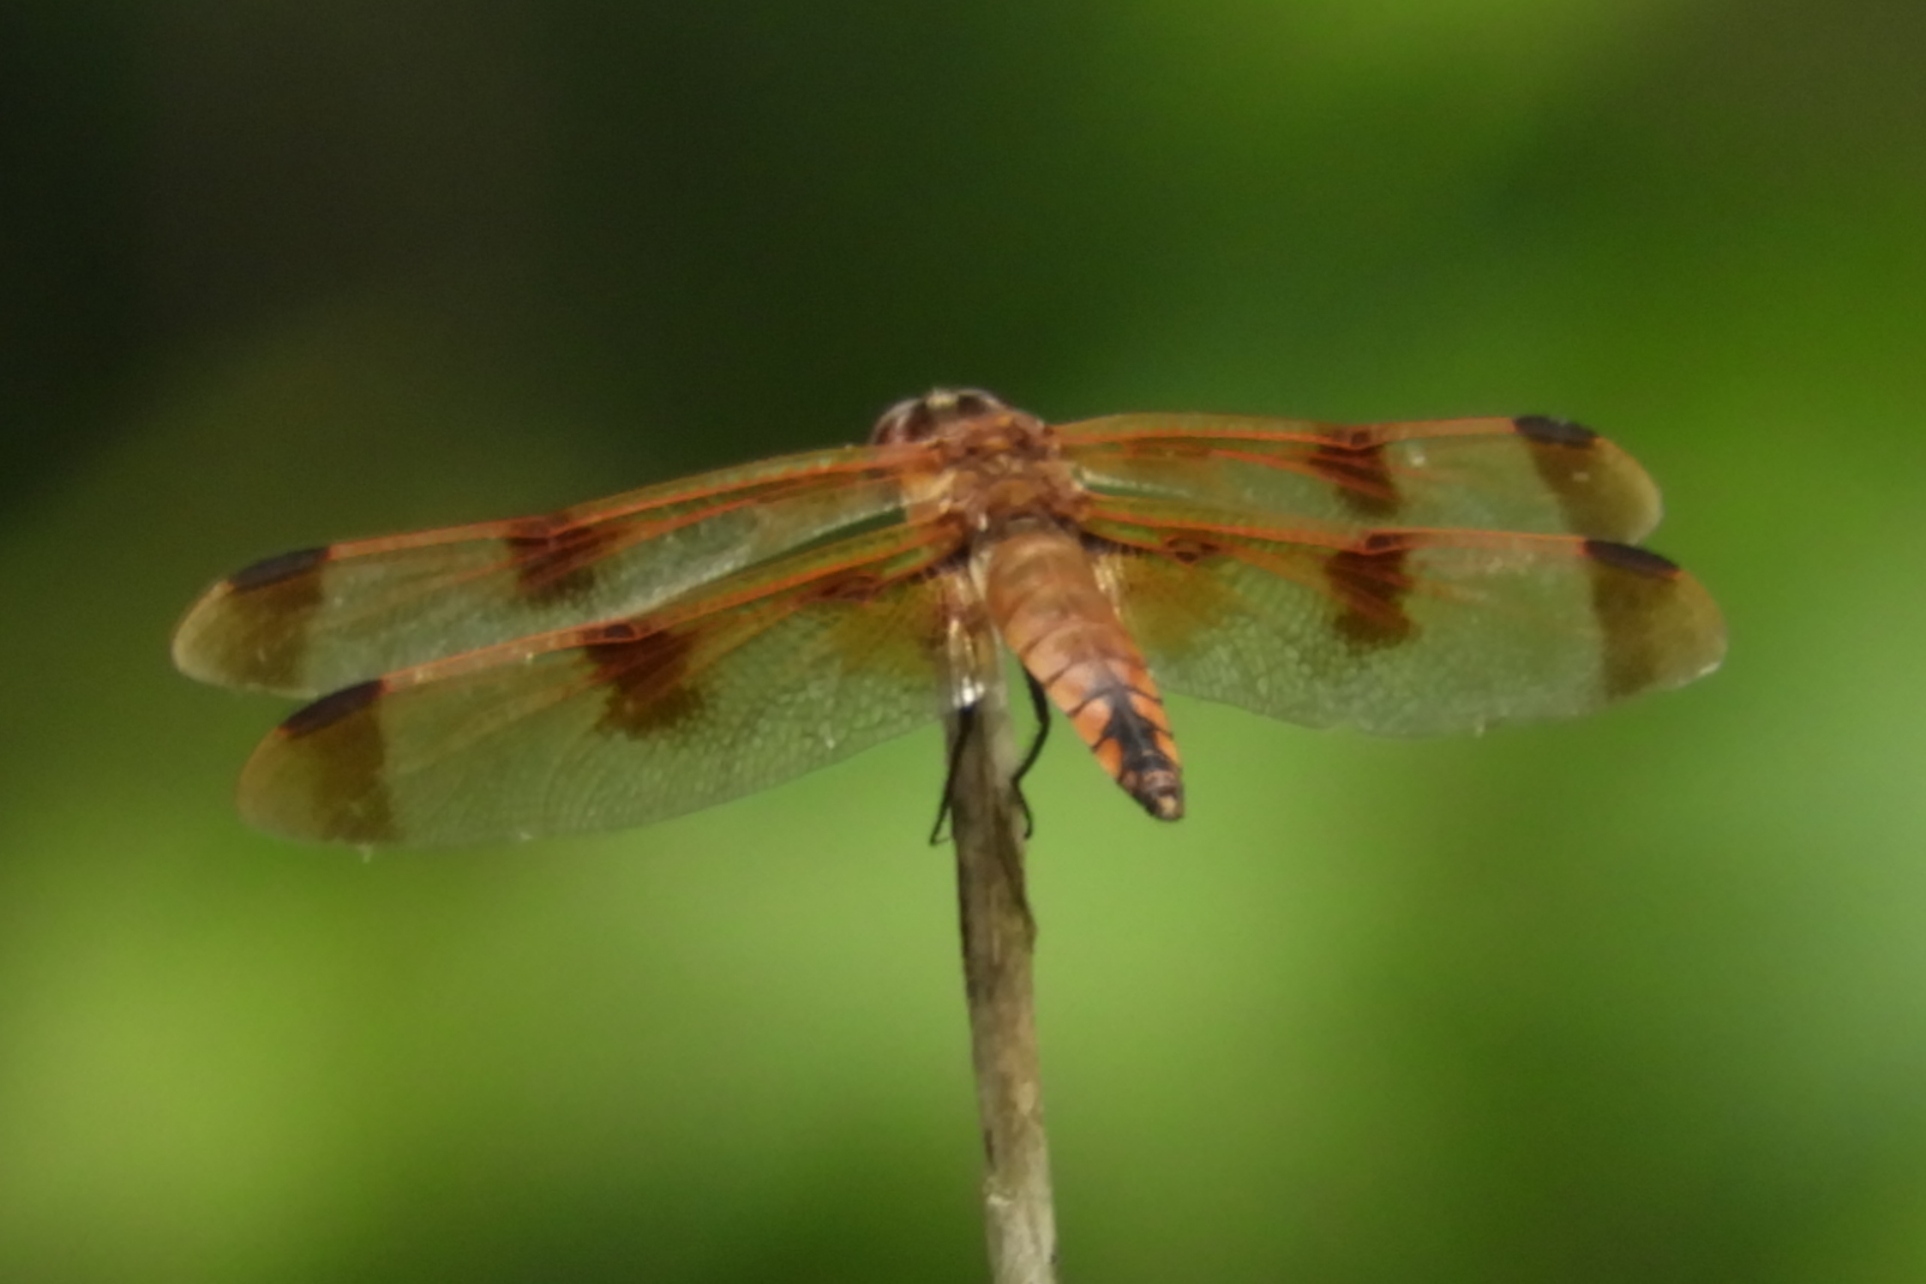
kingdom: Animalia
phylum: Arthropoda
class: Insecta
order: Odonata
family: Libellulidae
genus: Libellula
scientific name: Libellula semifasciata
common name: Painted skimmer
